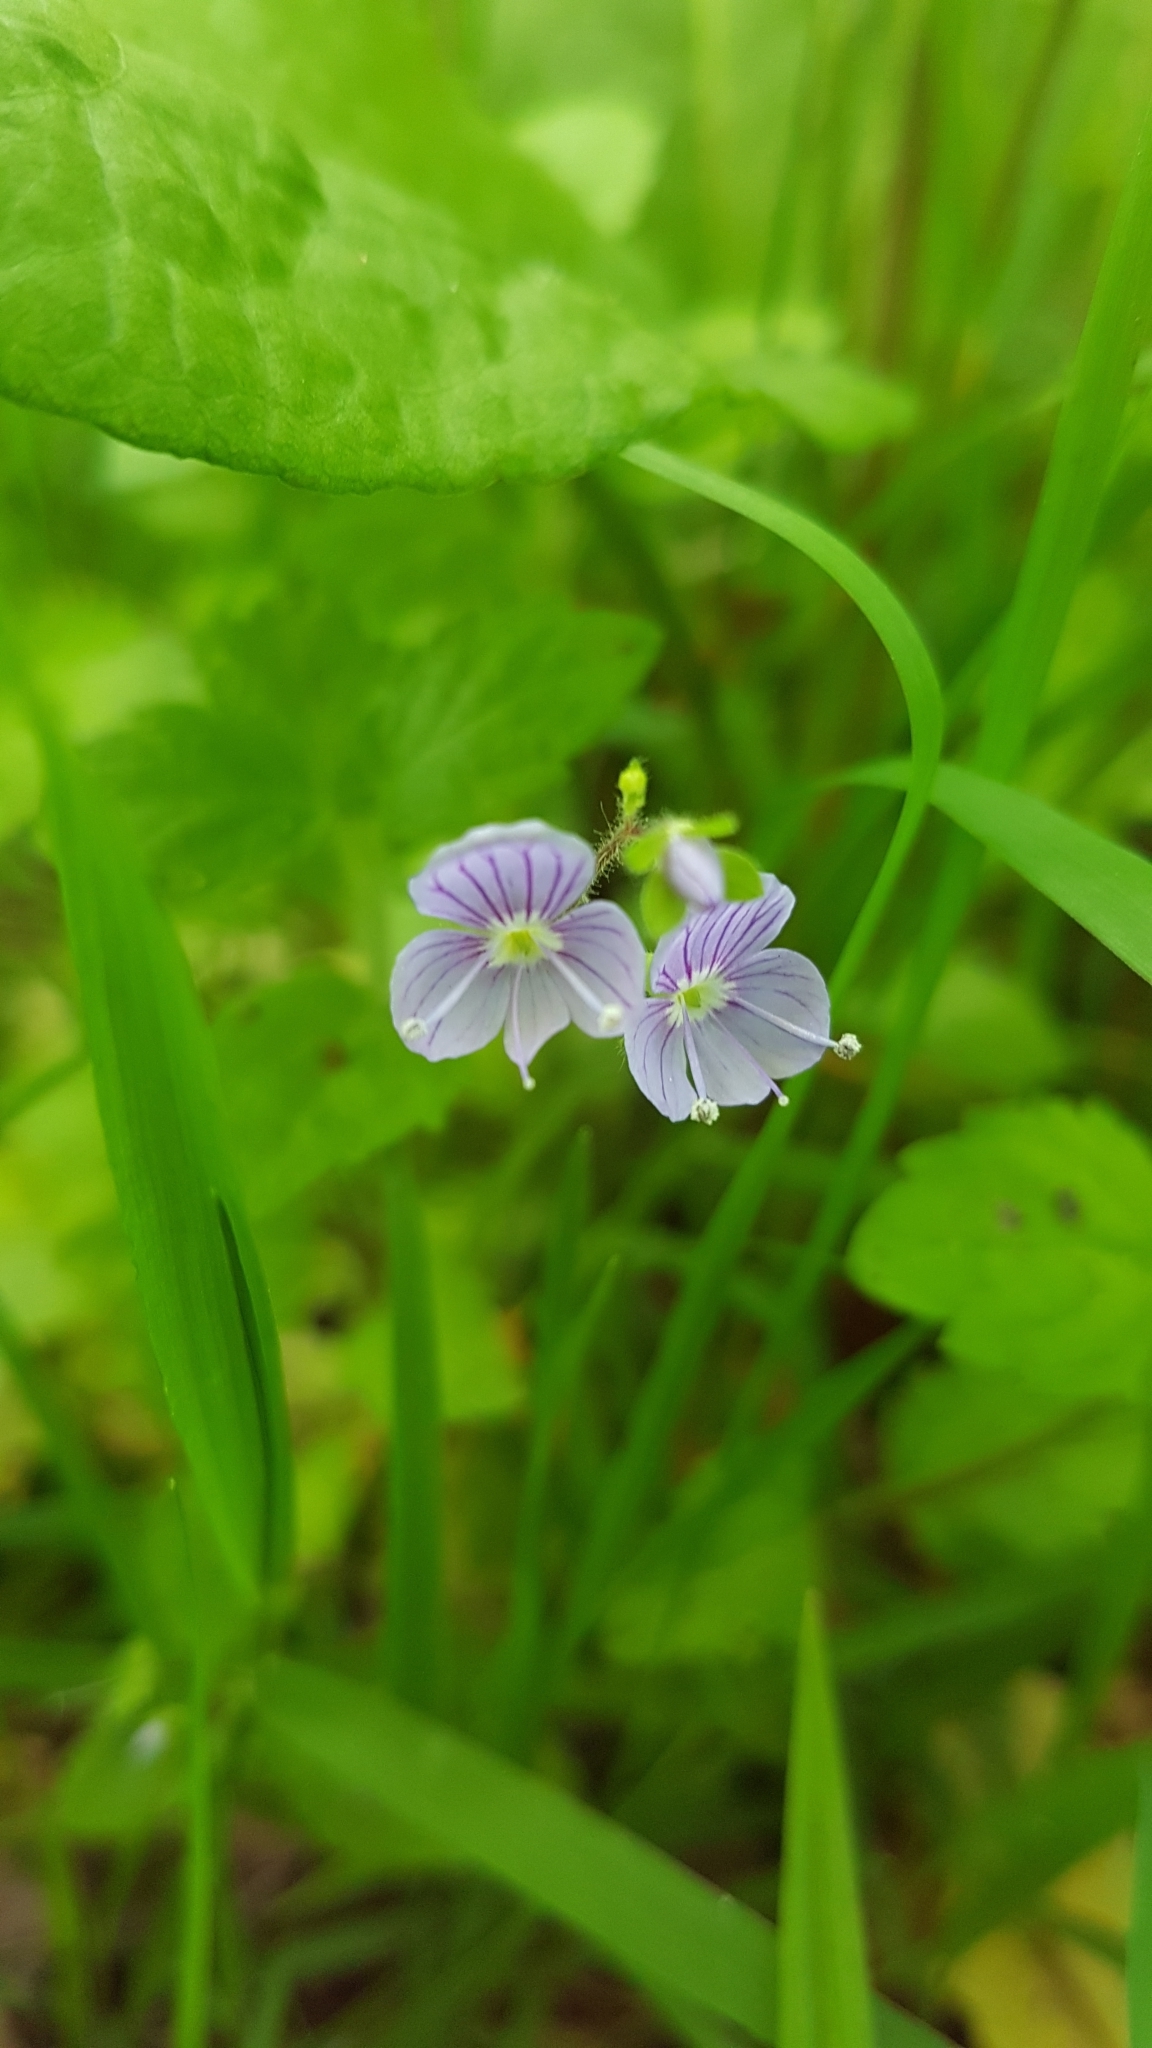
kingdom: Plantae
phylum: Tracheophyta
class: Magnoliopsida
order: Lamiales
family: Plantaginaceae
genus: Veronica
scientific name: Veronica montana
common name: Wood speedwell
